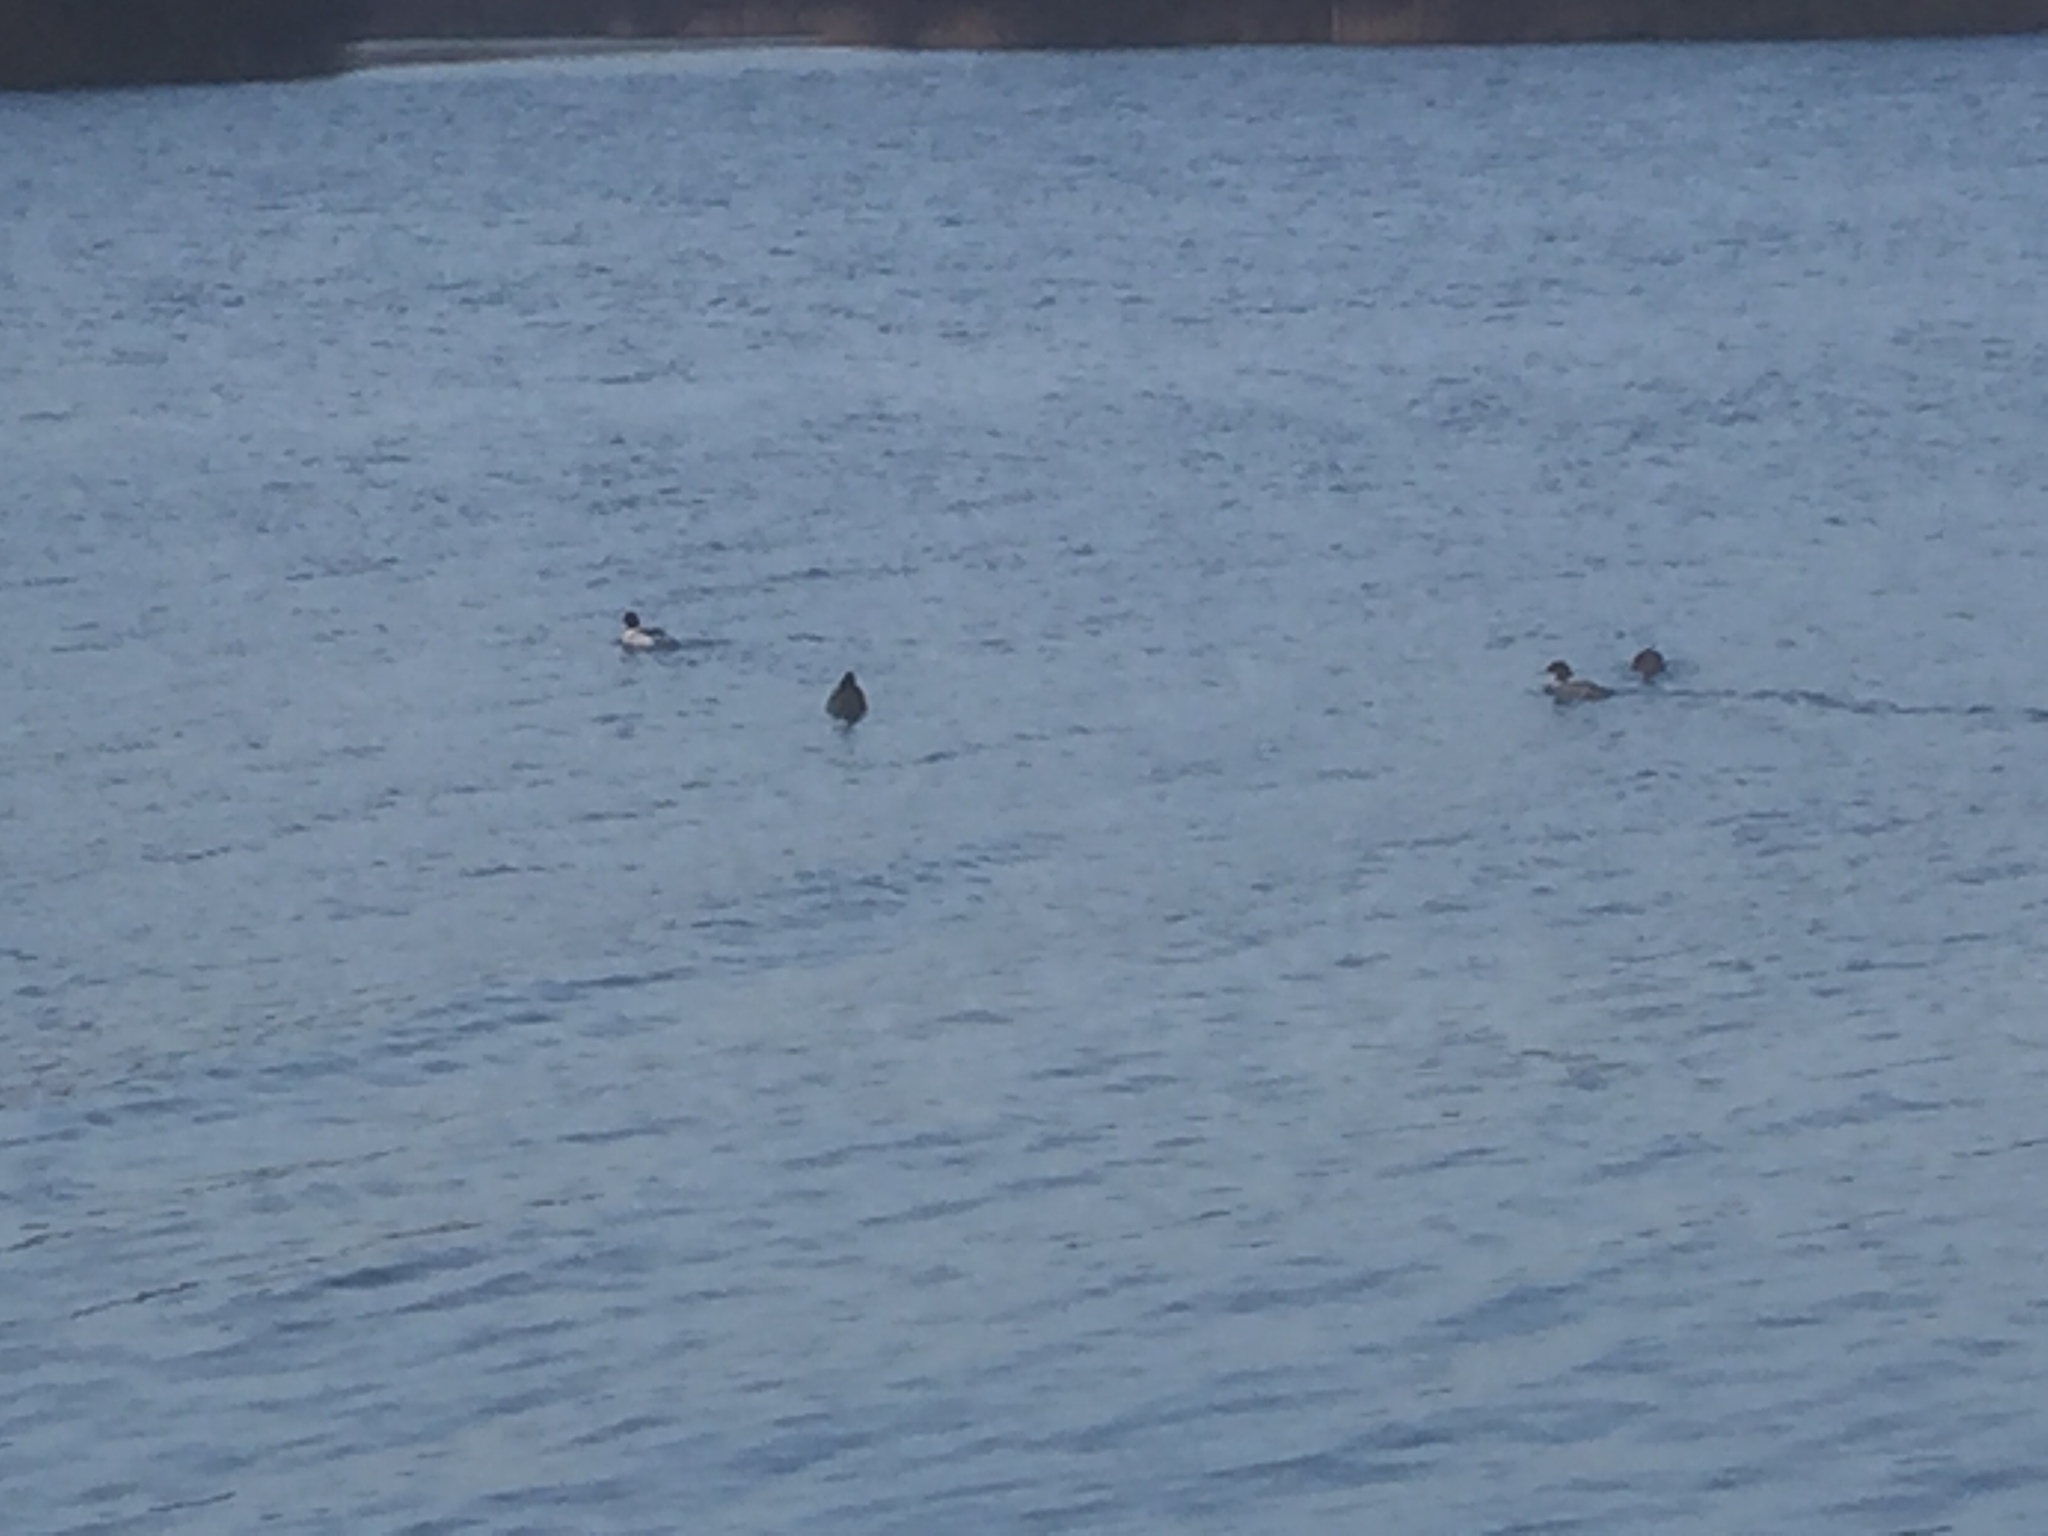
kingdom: Animalia
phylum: Chordata
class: Aves
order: Anseriformes
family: Anatidae
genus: Mergus
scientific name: Mergus merganser
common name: Common merganser
